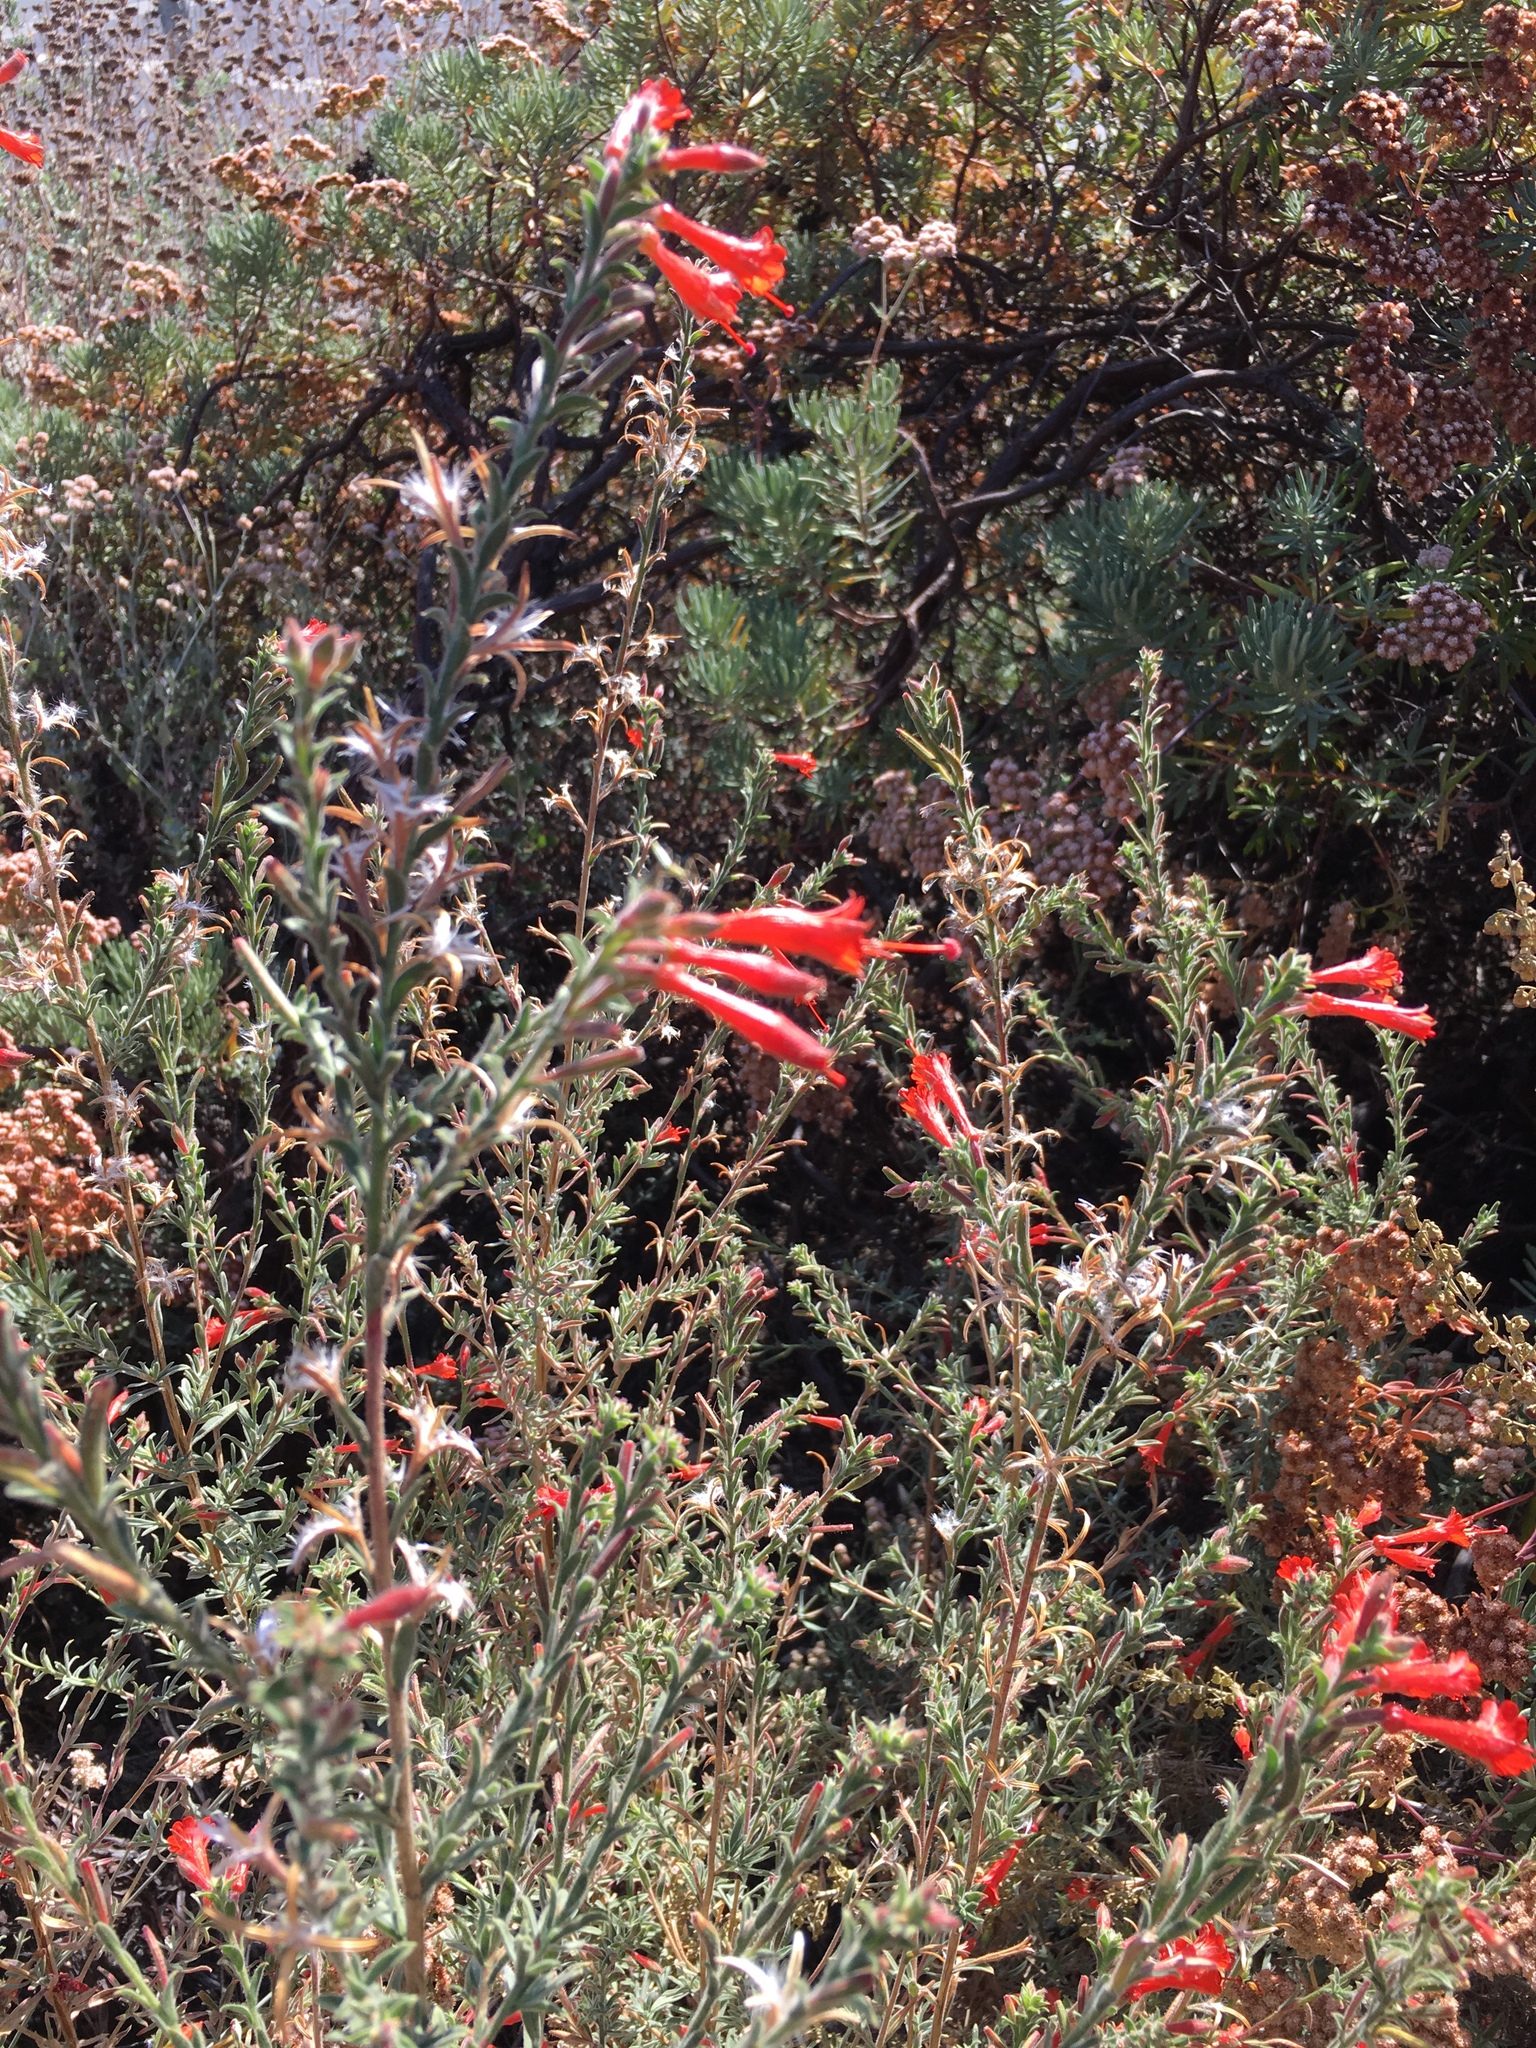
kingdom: Plantae
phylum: Tracheophyta
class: Magnoliopsida
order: Myrtales
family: Onagraceae
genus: Epilobium
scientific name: Epilobium canum
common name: California-fuchsia
